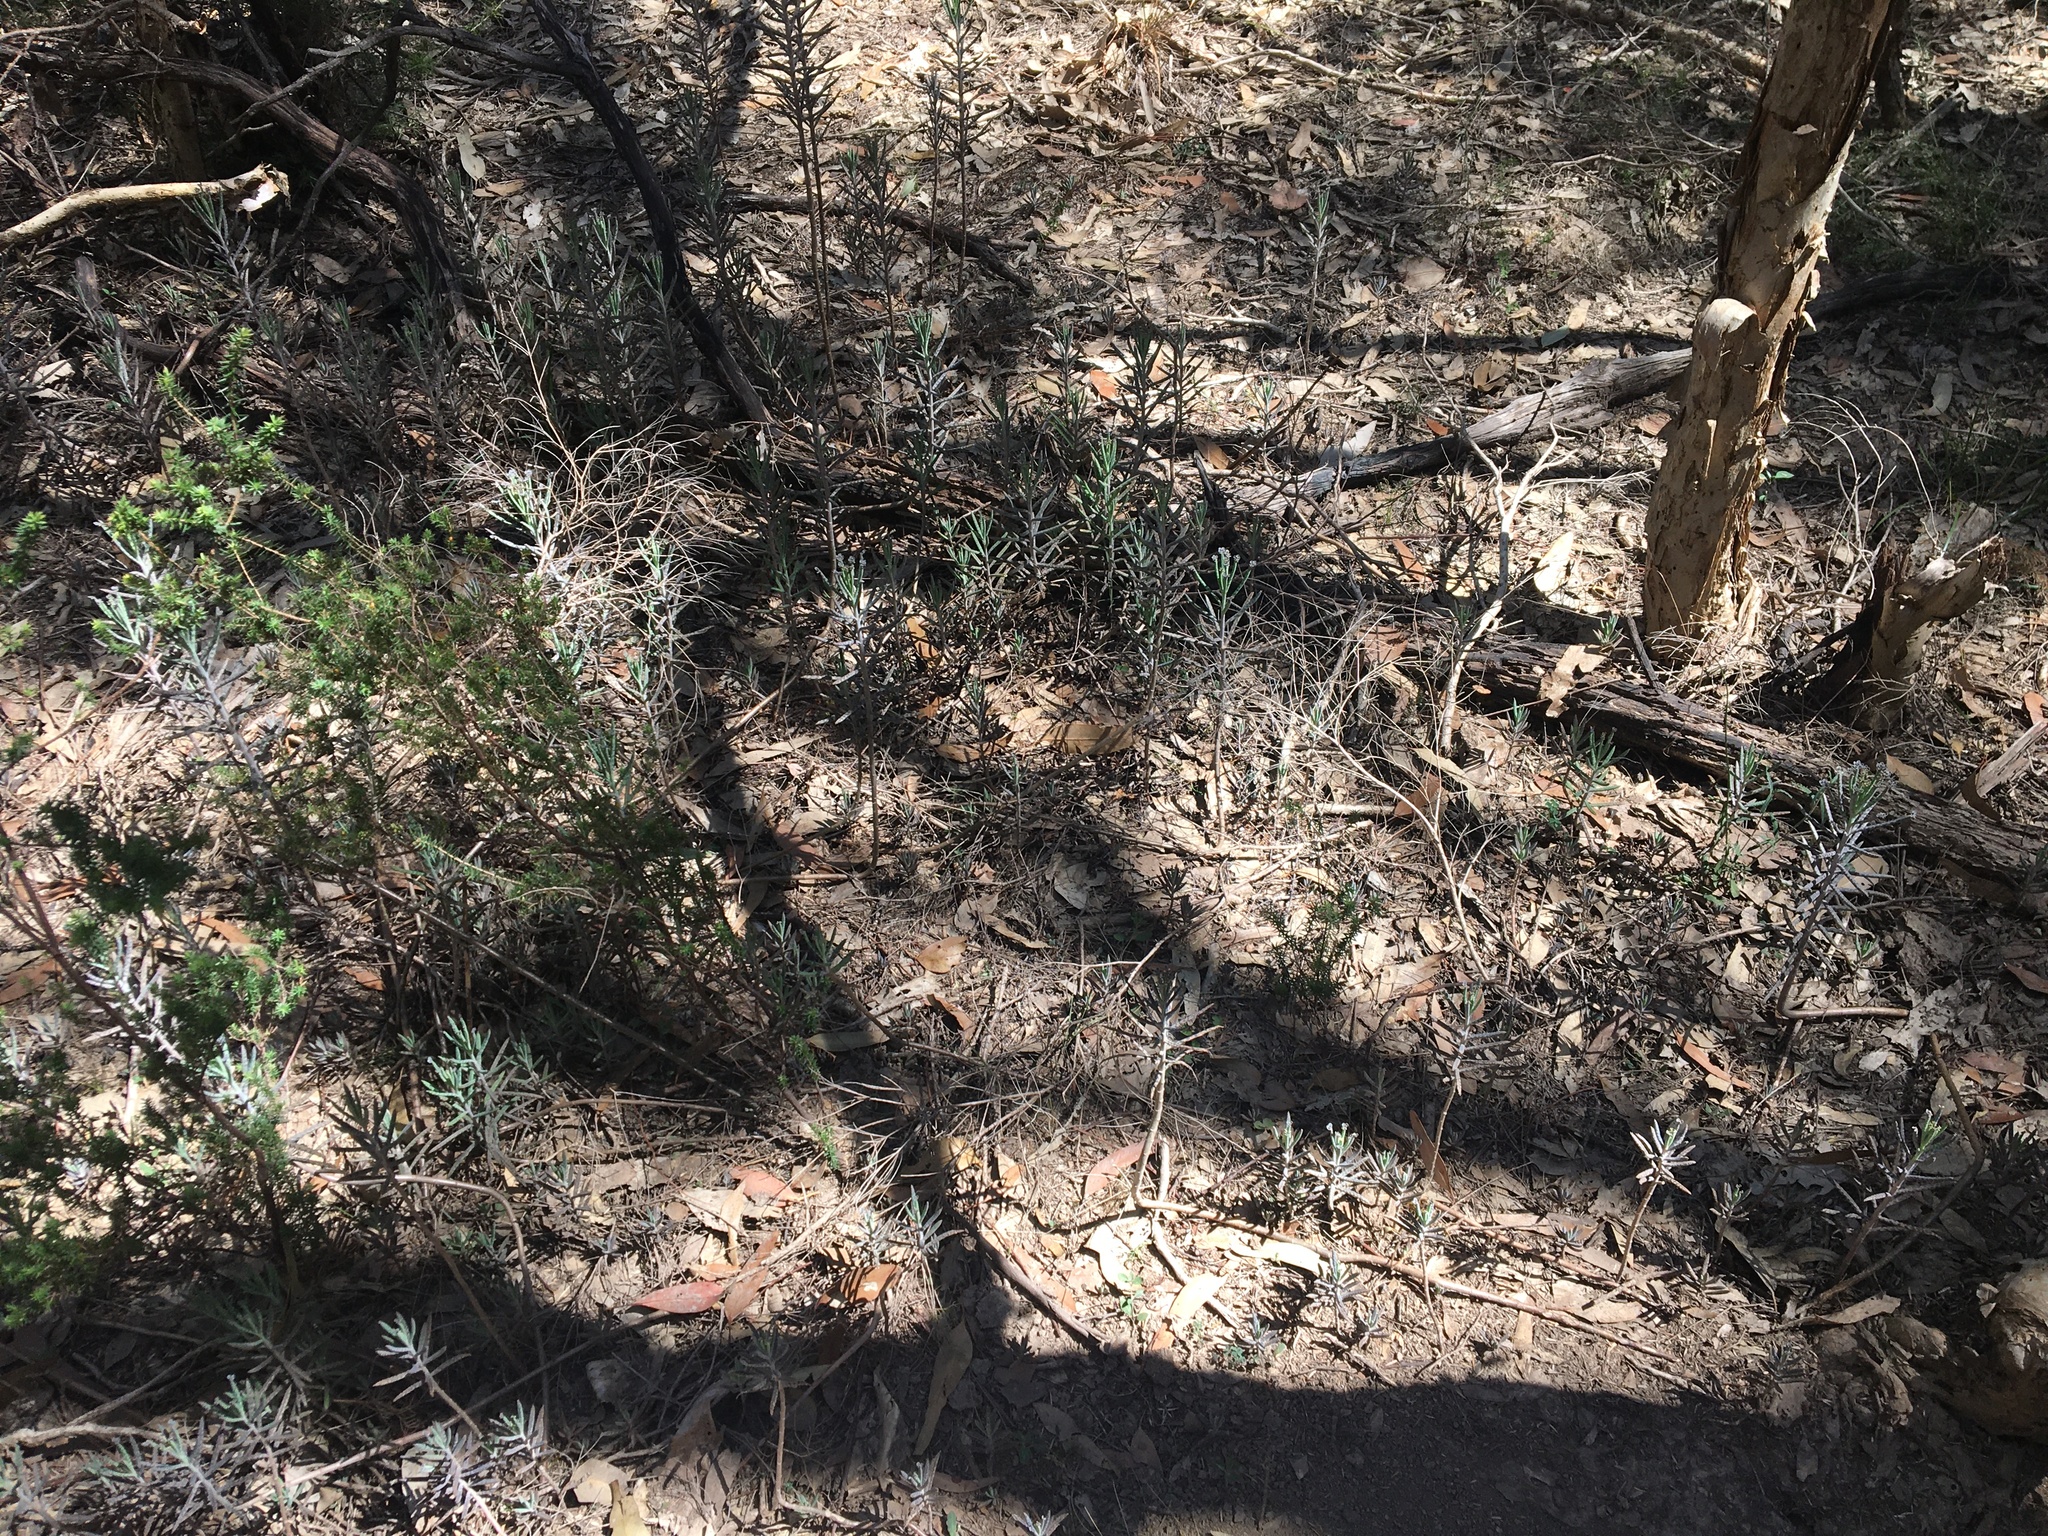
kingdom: Plantae
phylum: Tracheophyta
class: Magnoliopsida
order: Saxifragales
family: Crassulaceae
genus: Kalanchoe
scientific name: Kalanchoe delagoensis
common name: Chandelier plant
